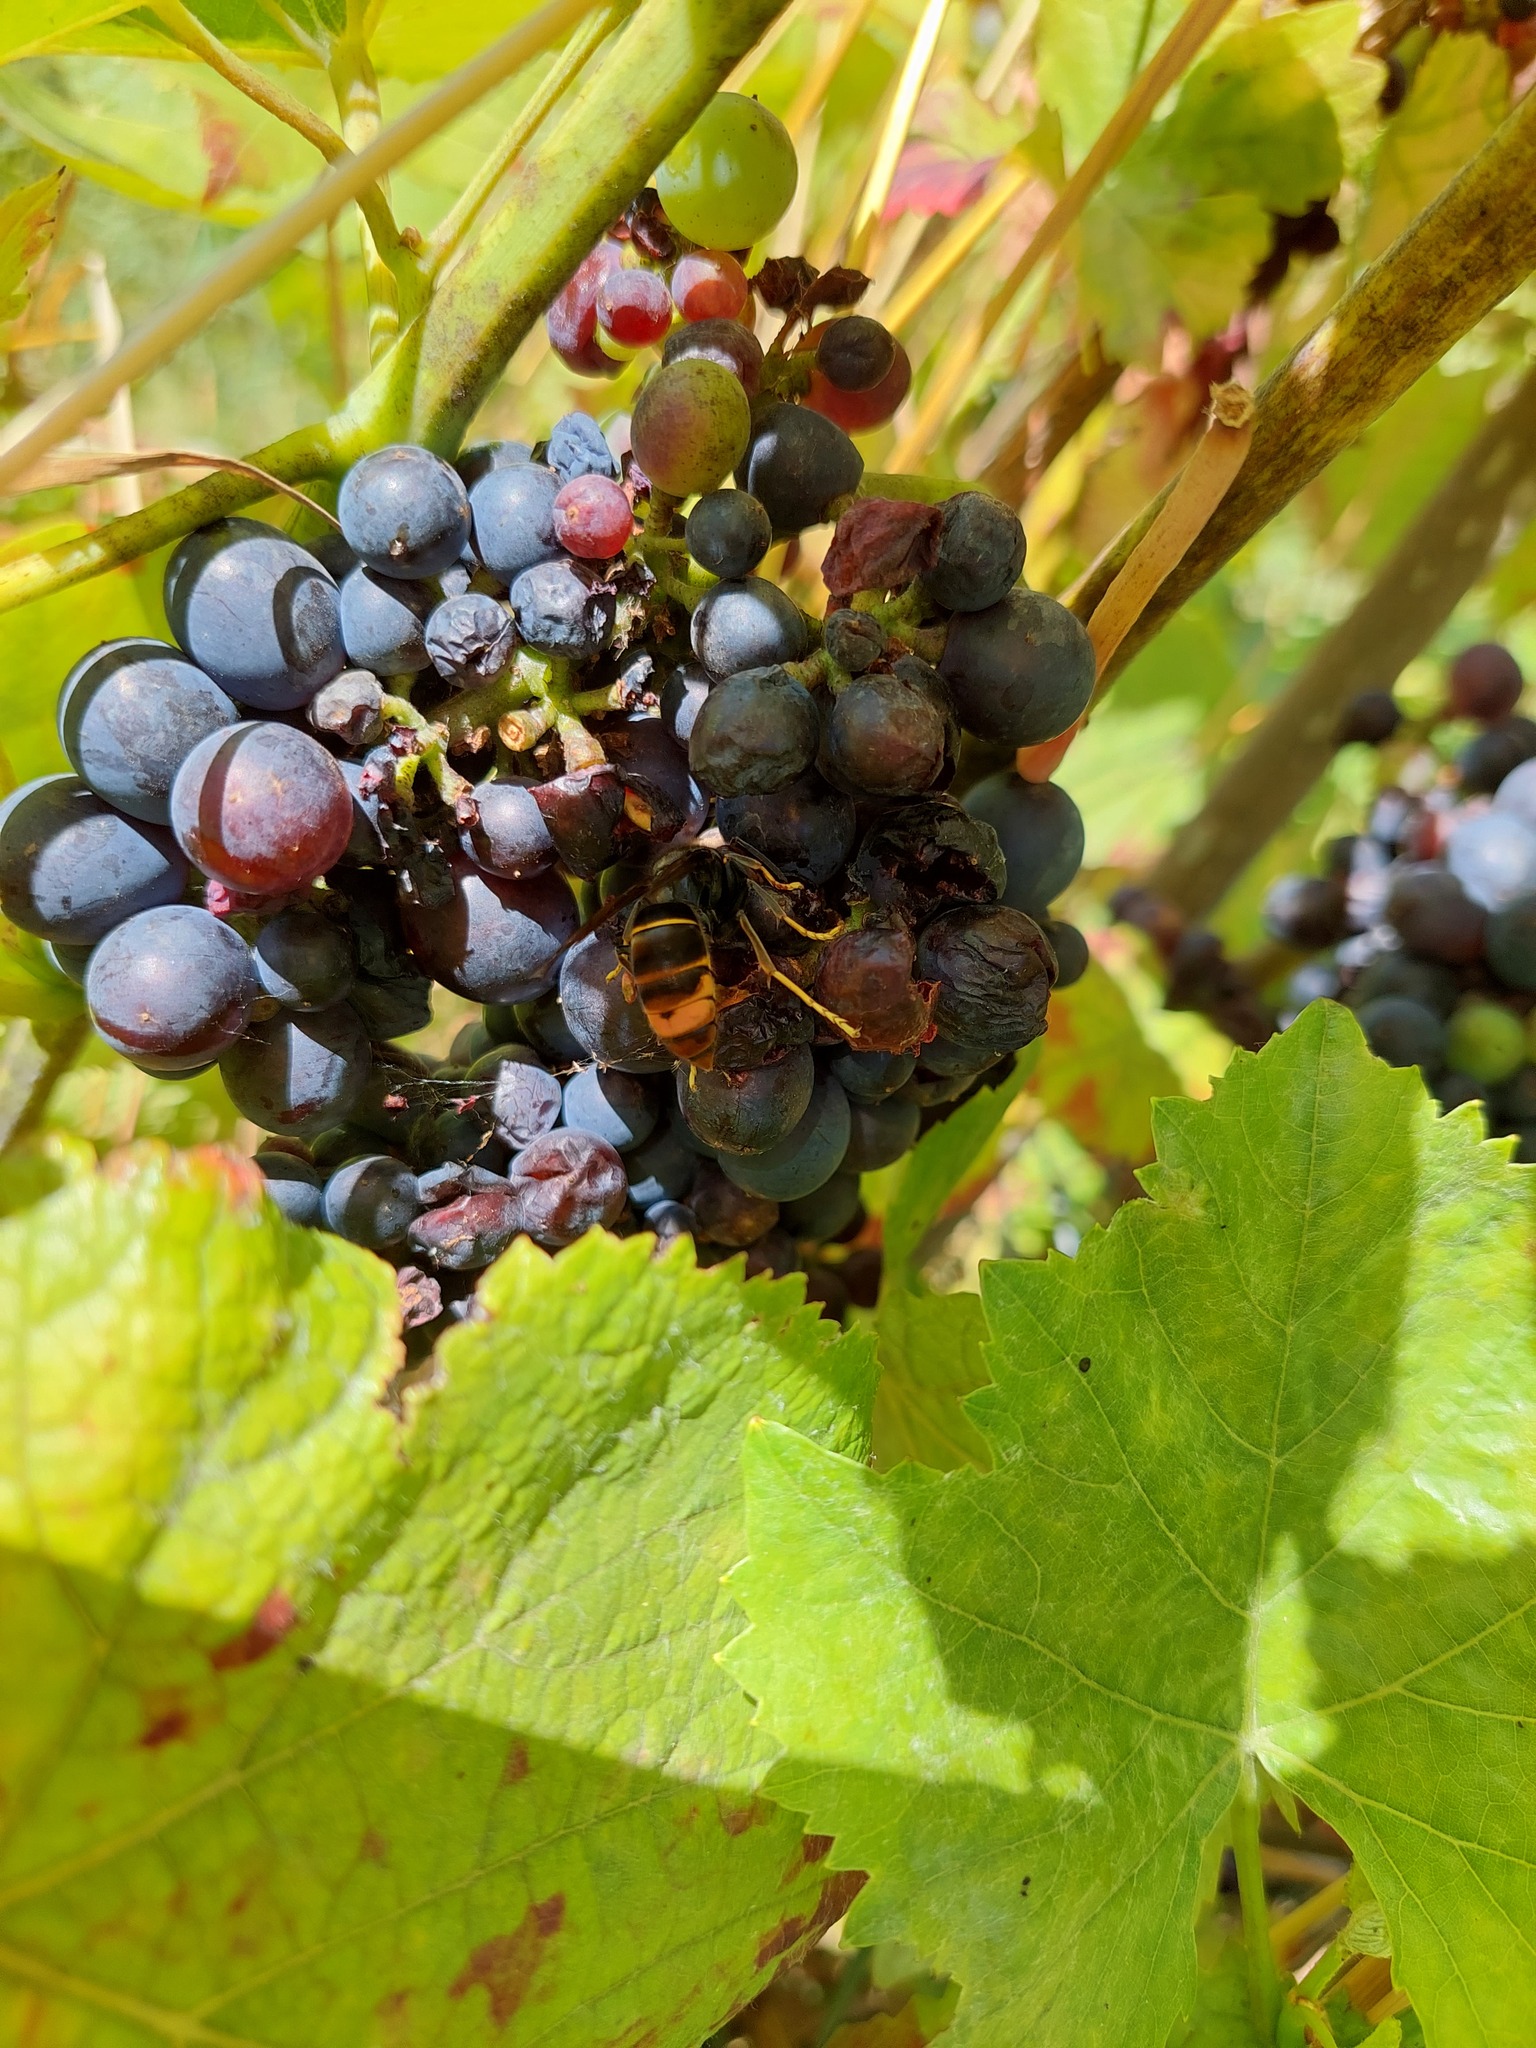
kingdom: Animalia
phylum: Arthropoda
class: Insecta
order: Hymenoptera
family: Vespidae
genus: Vespa
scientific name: Vespa velutina
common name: Asian hornet
